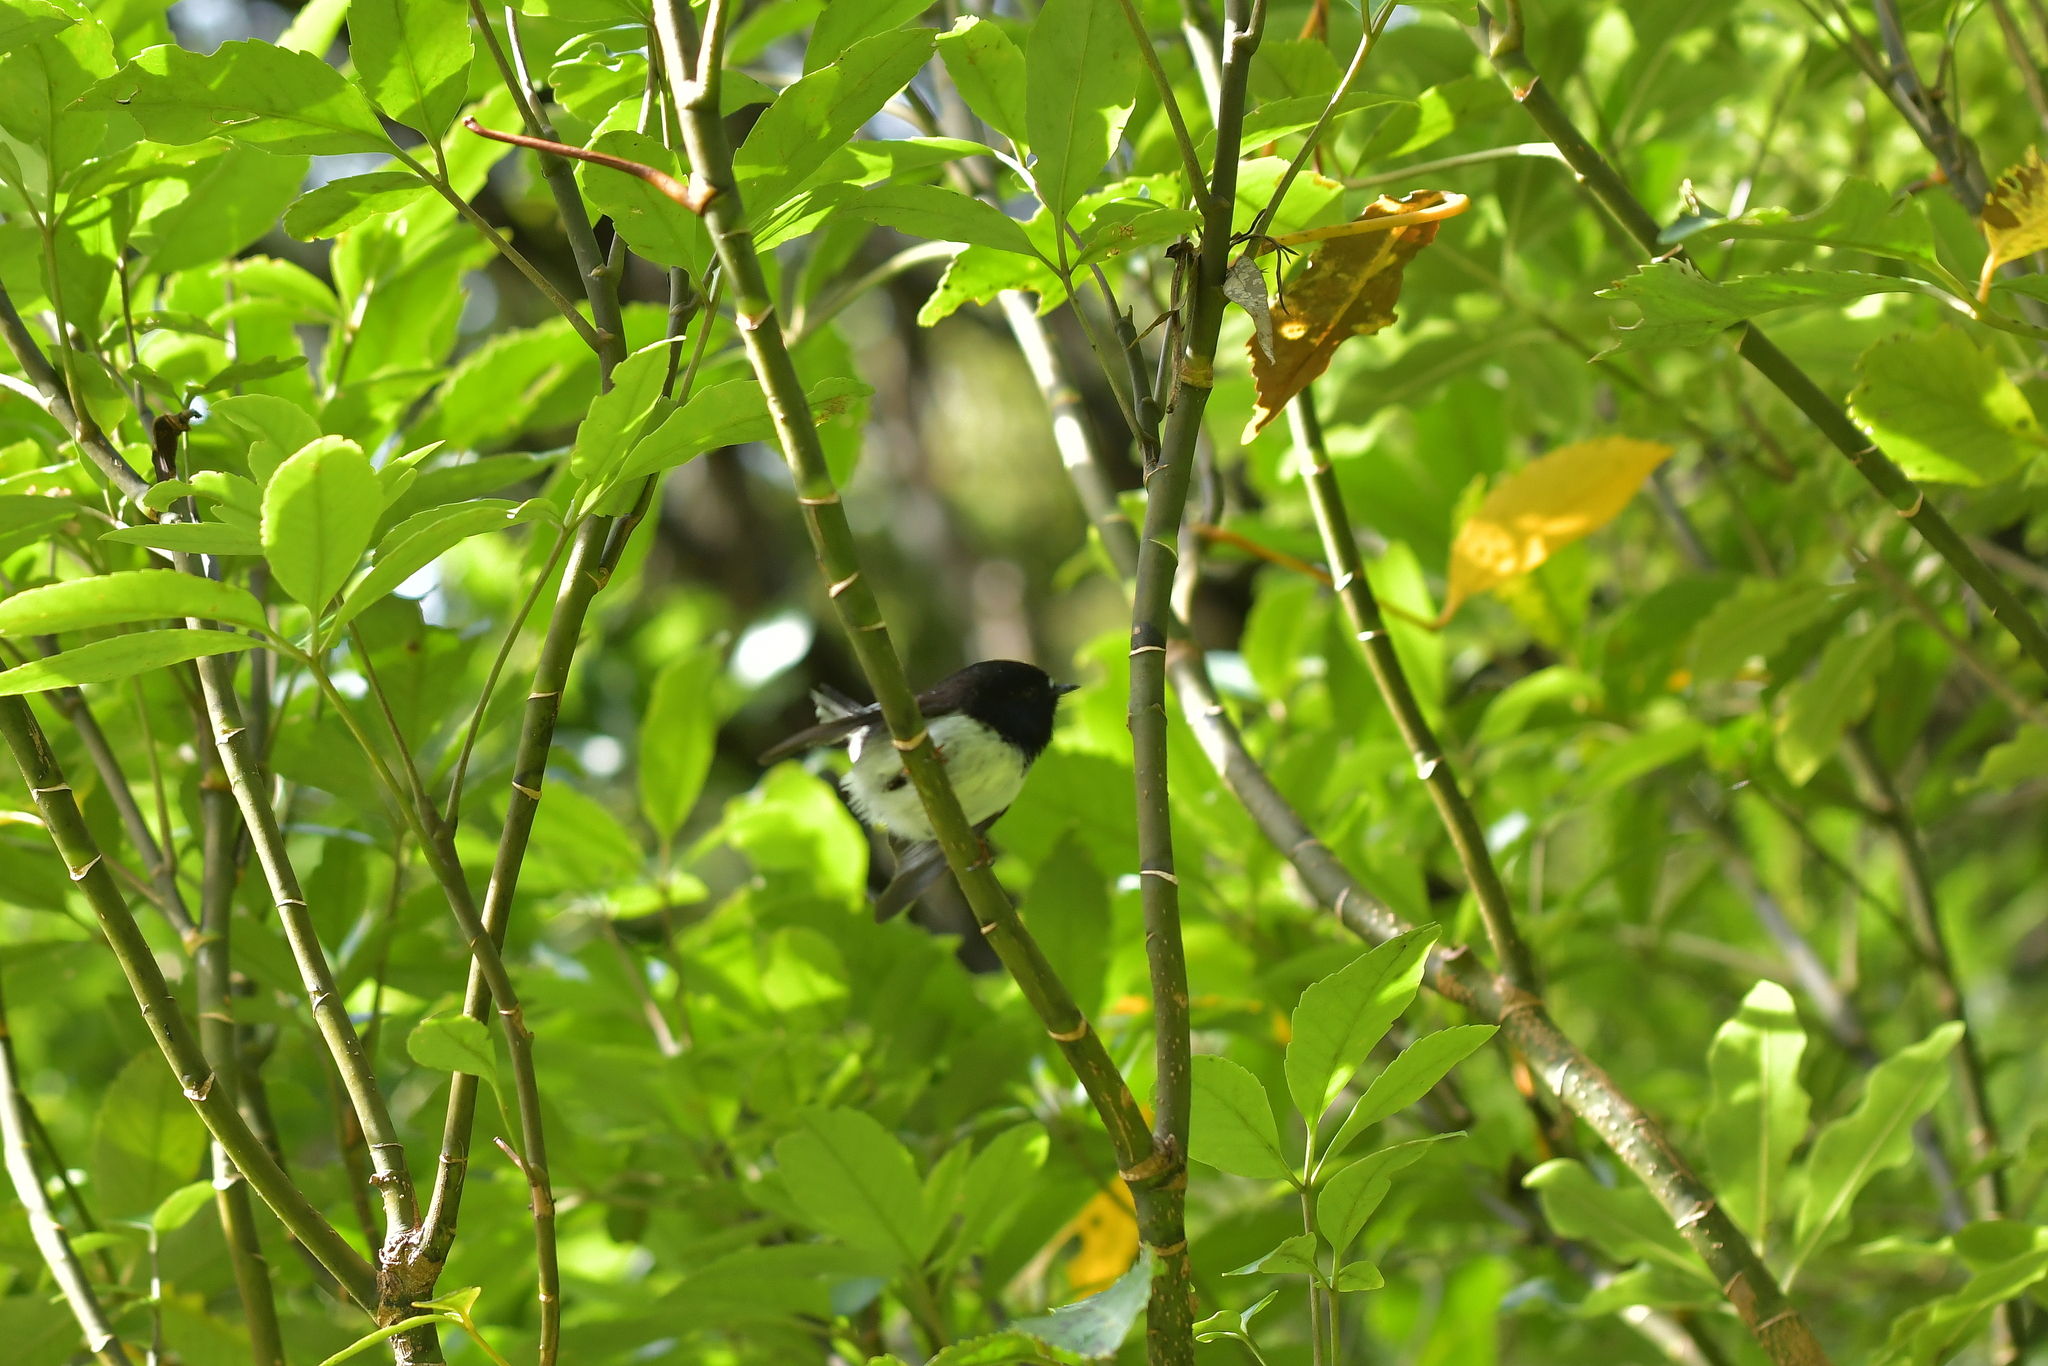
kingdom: Animalia
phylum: Chordata
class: Aves
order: Passeriformes
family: Petroicidae
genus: Petroica
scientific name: Petroica macrocephala
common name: Tomtit
